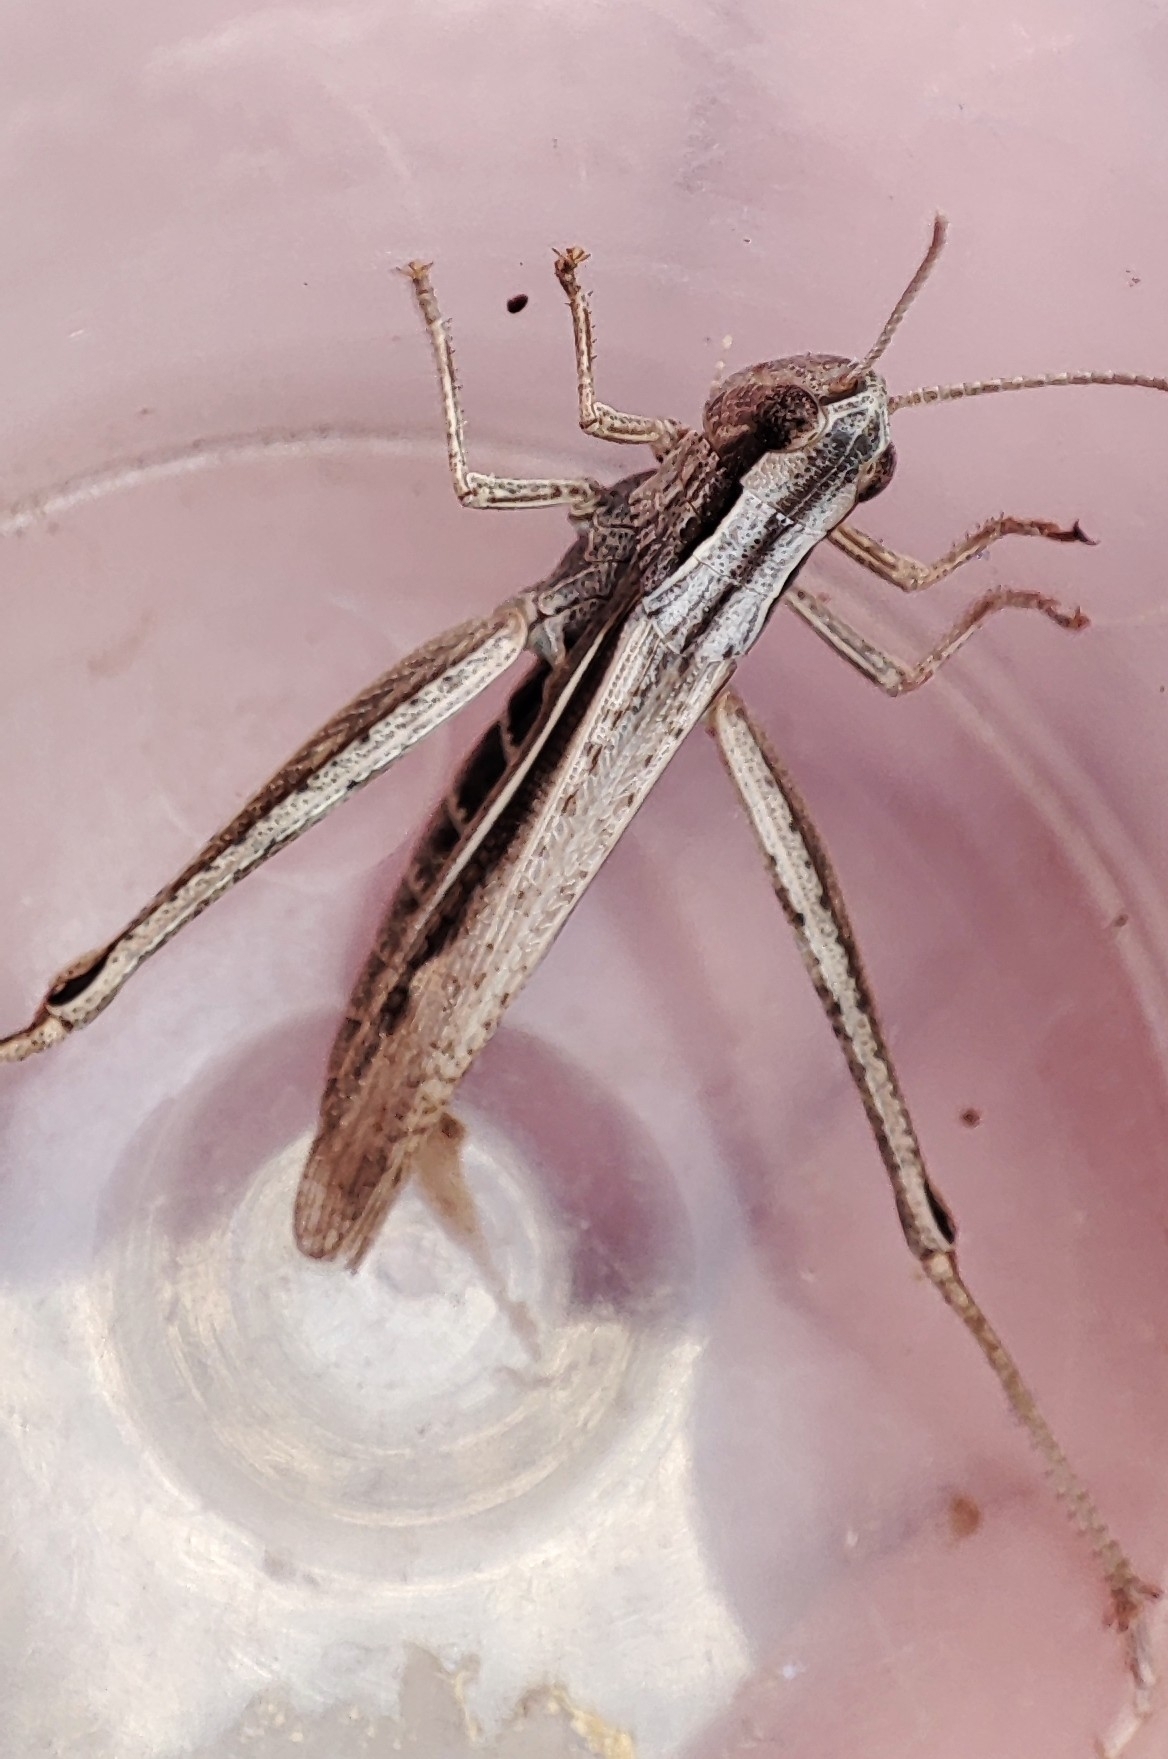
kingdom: Animalia
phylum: Arthropoda
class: Insecta
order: Orthoptera
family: Acrididae
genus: Chorthippus
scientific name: Chorthippus albomarginatus
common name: Lesser marsh grasshopper
